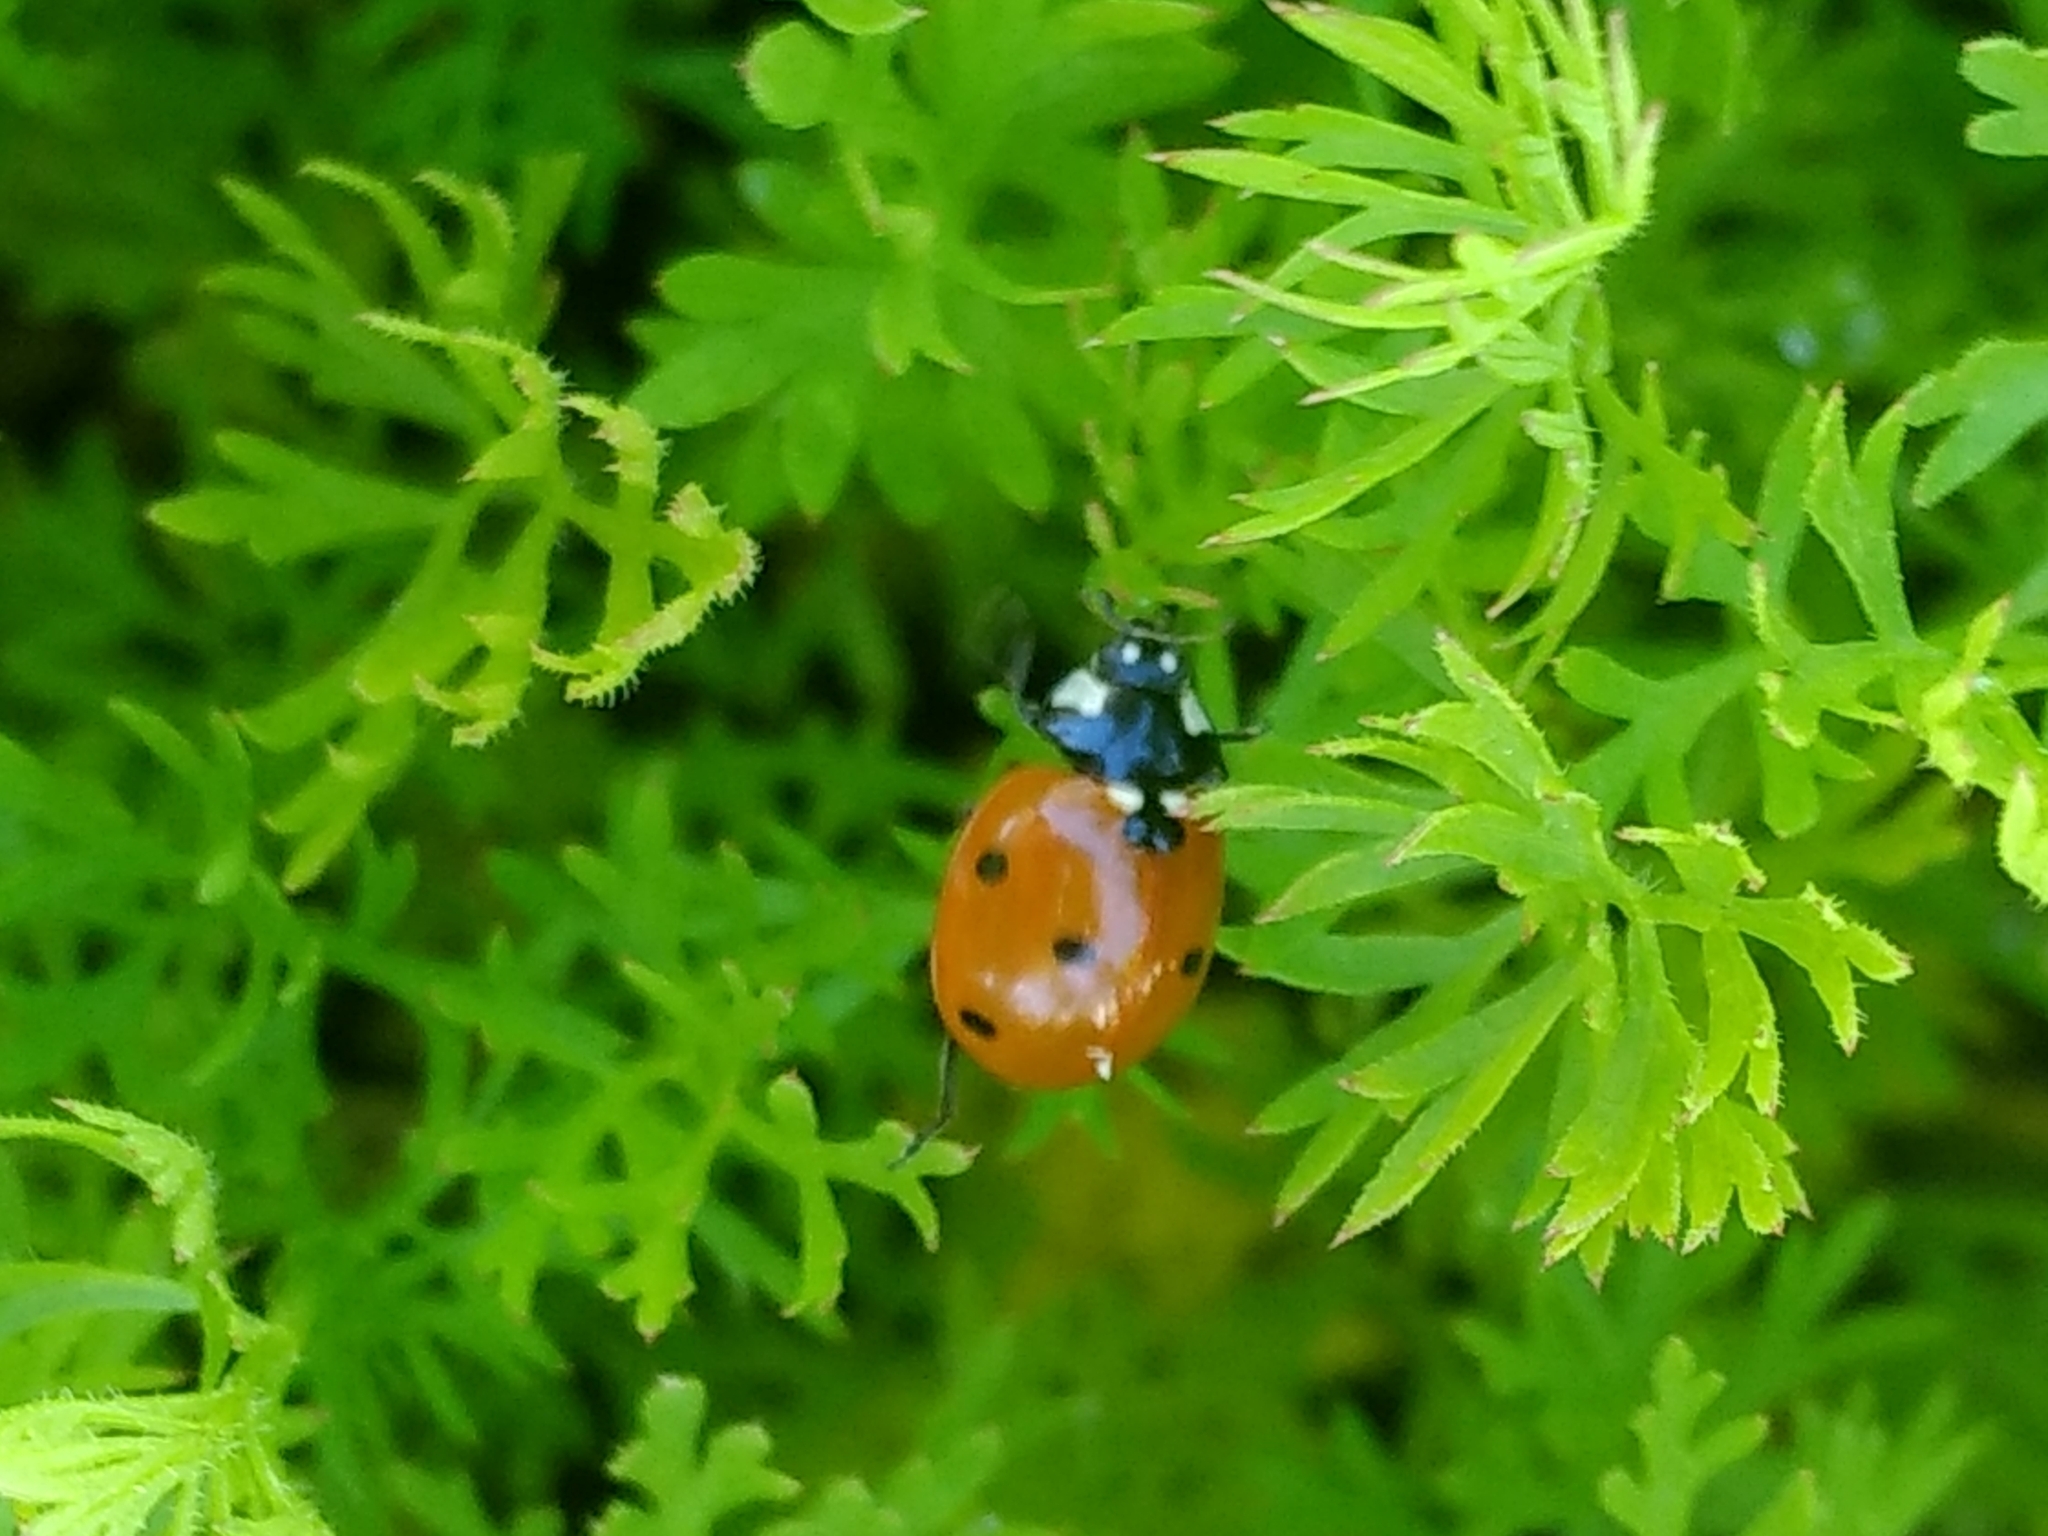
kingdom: Animalia
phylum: Arthropoda
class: Insecta
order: Coleoptera
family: Coccinellidae
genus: Coccinella
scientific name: Coccinella septempunctata
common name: Sevenspotted lady beetle
